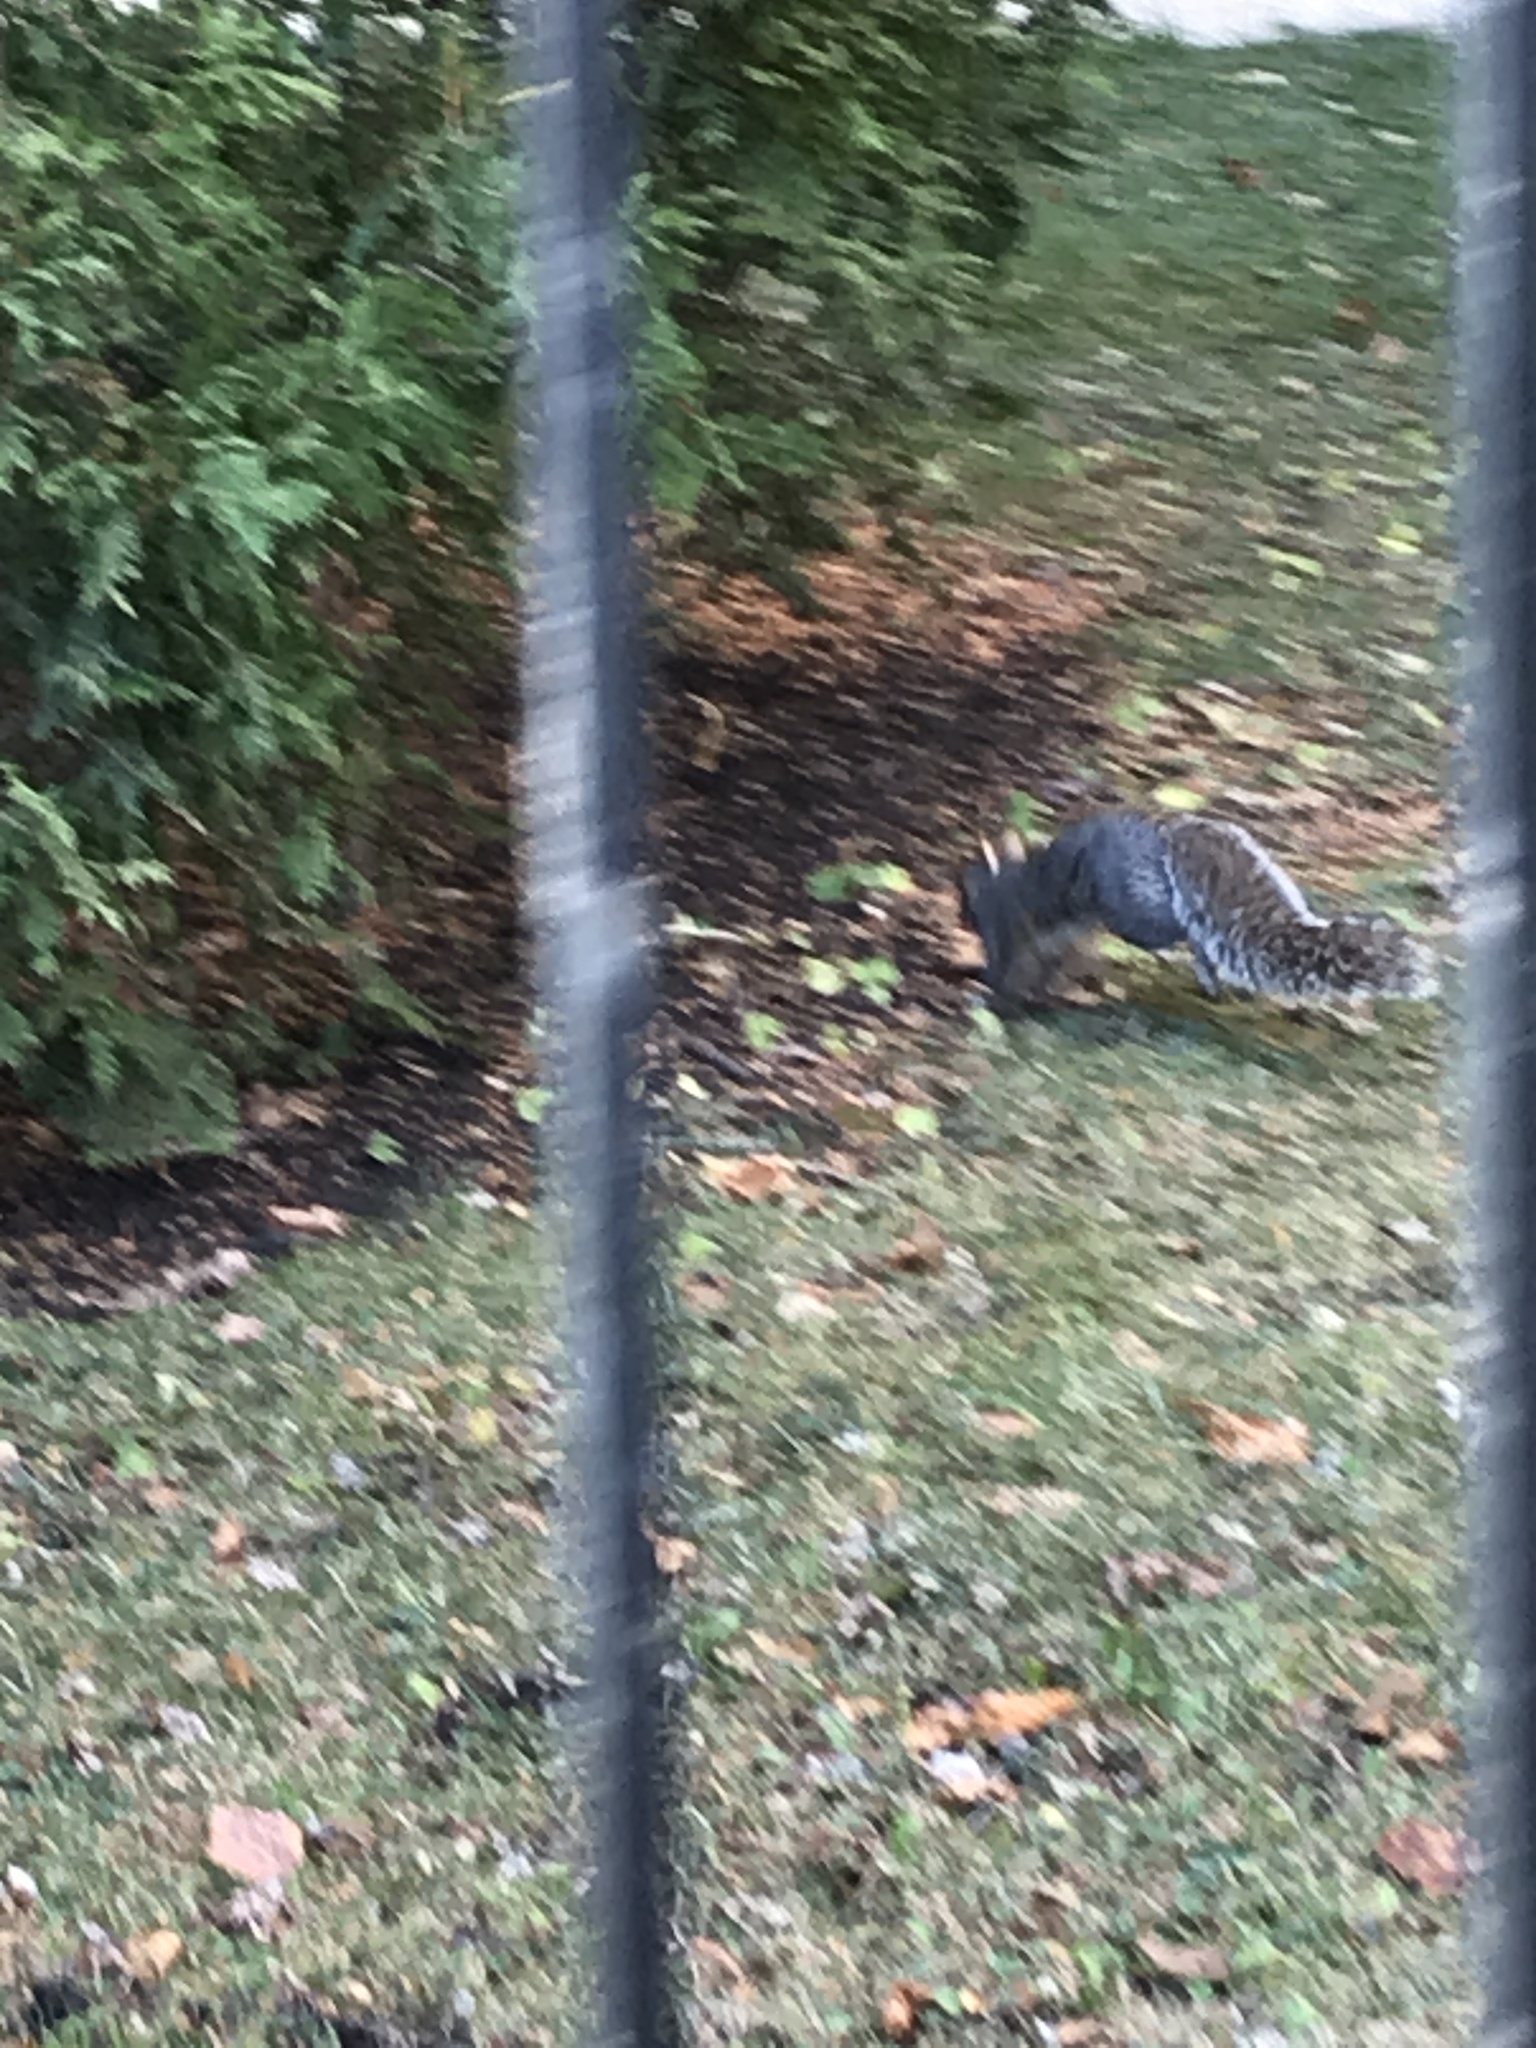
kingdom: Animalia
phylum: Chordata
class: Mammalia
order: Rodentia
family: Sciuridae
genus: Sciurus
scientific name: Sciurus carolinensis
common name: Eastern gray squirrel
